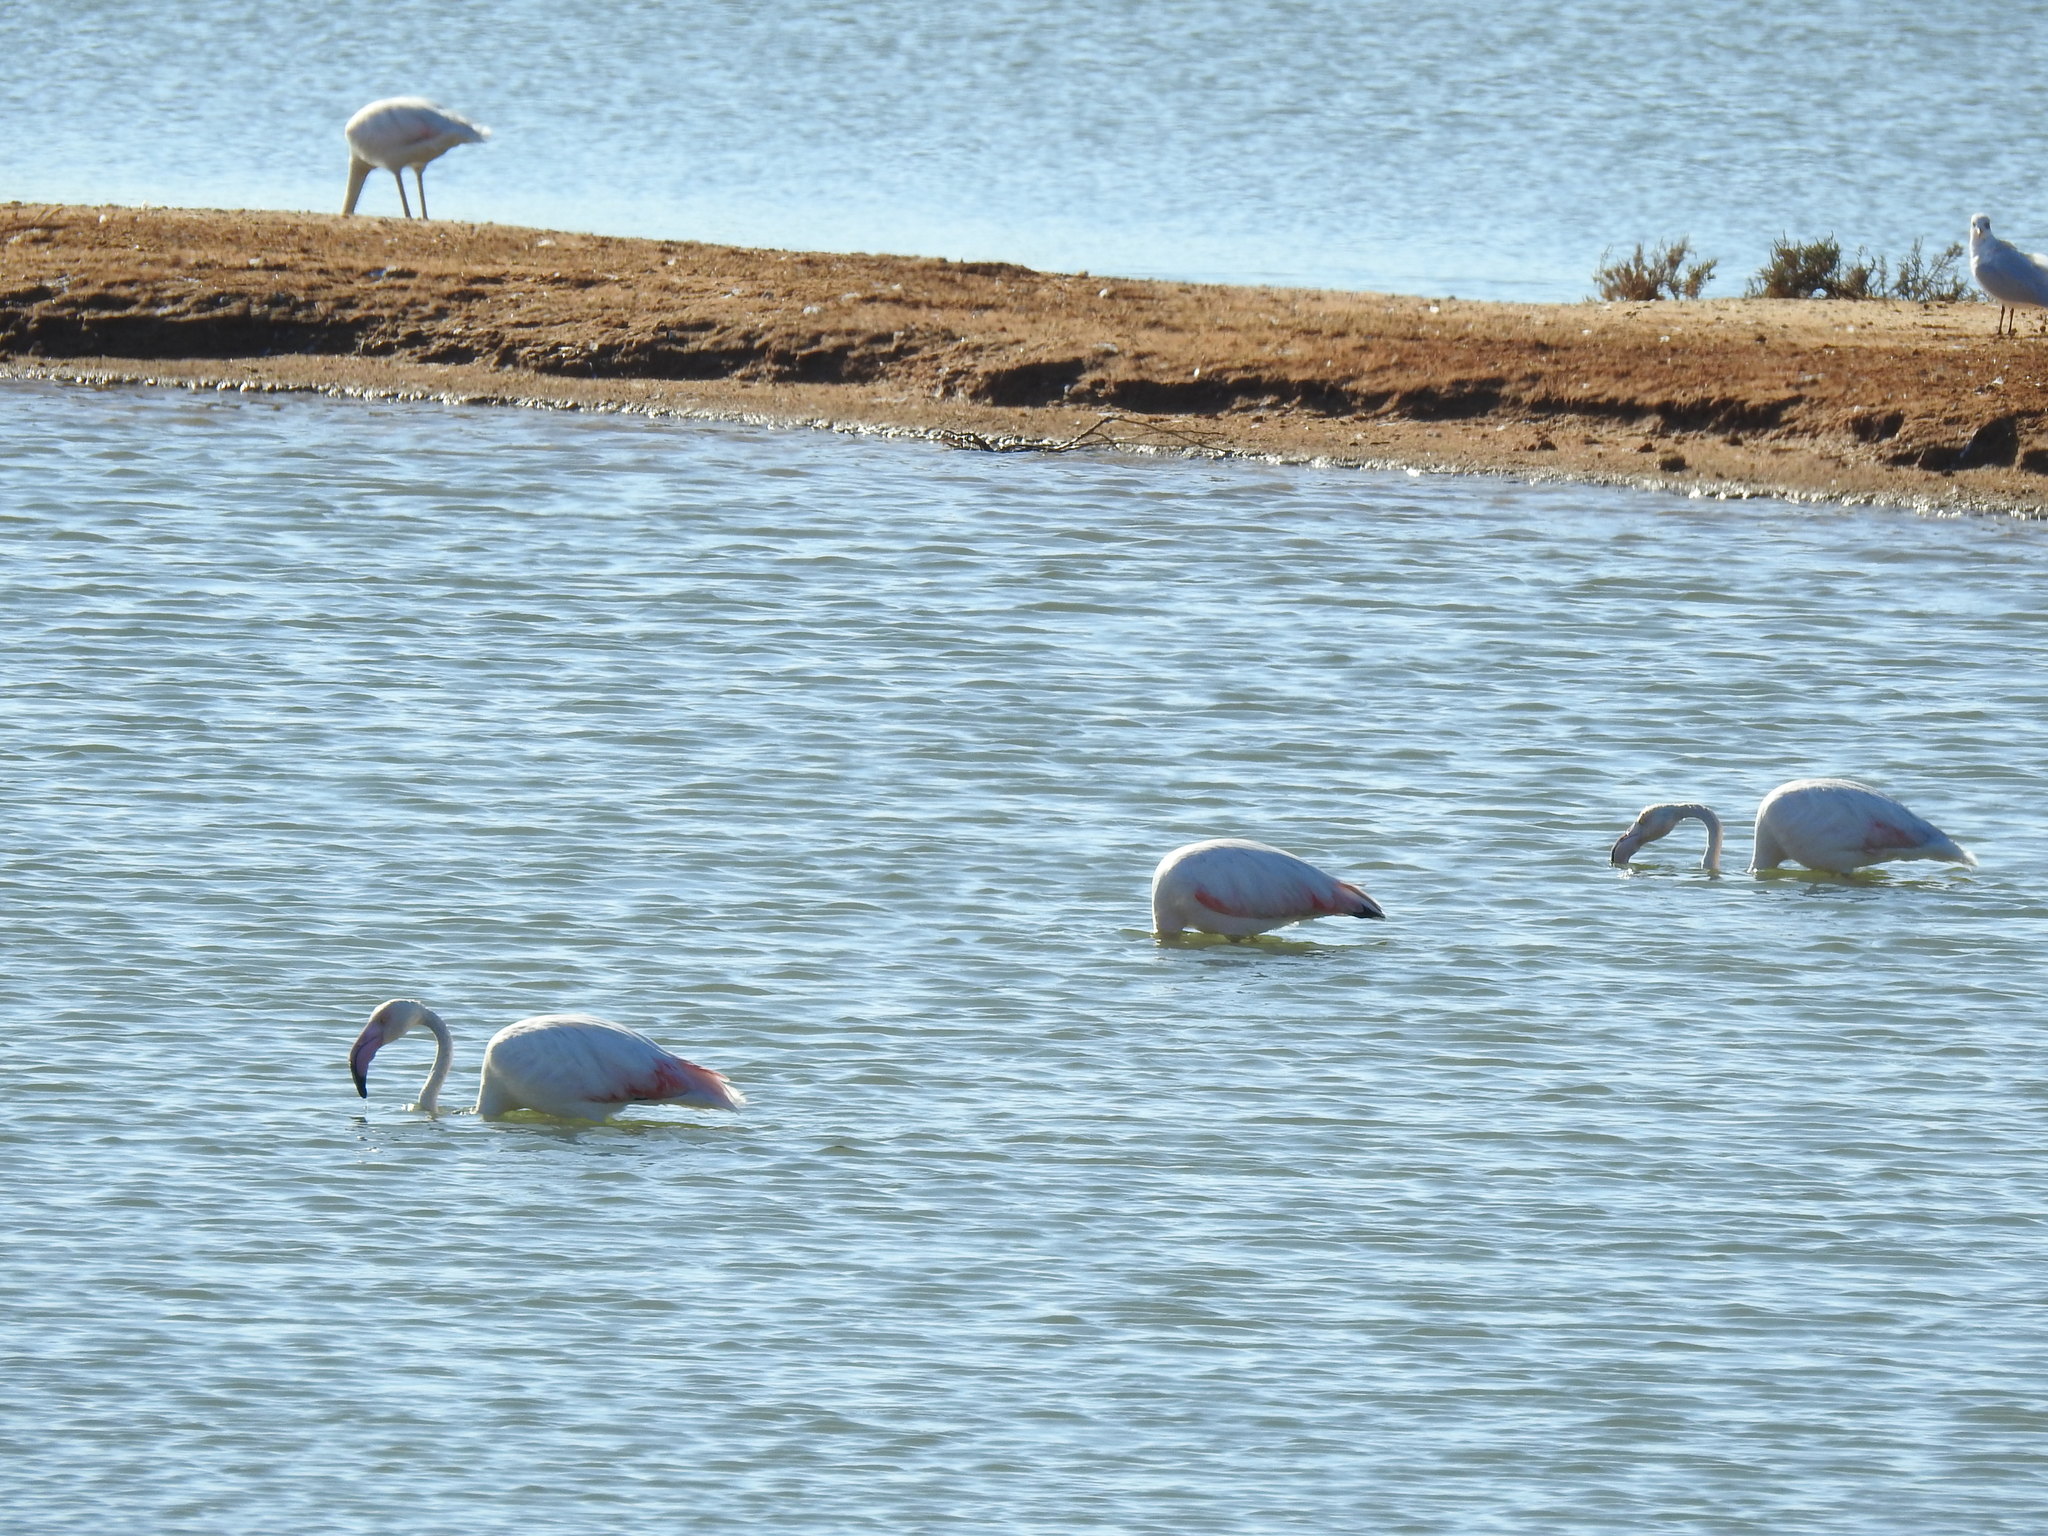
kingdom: Animalia
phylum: Chordata
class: Aves
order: Phoenicopteriformes
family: Phoenicopteridae
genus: Phoenicopterus
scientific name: Phoenicopterus roseus
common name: Greater flamingo
